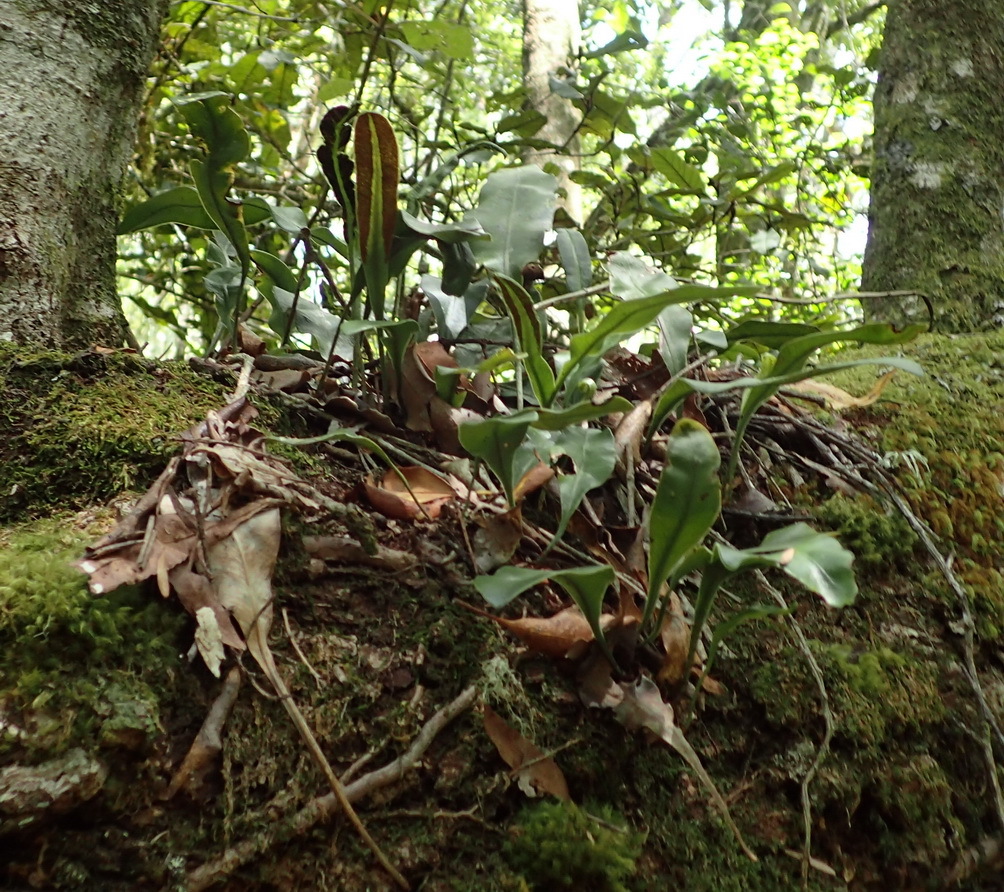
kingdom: Plantae
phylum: Tracheophyta
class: Polypodiopsida
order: Polypodiales
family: Dryopteridaceae
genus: Elaphoglossum
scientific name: Elaphoglossum angustatum
